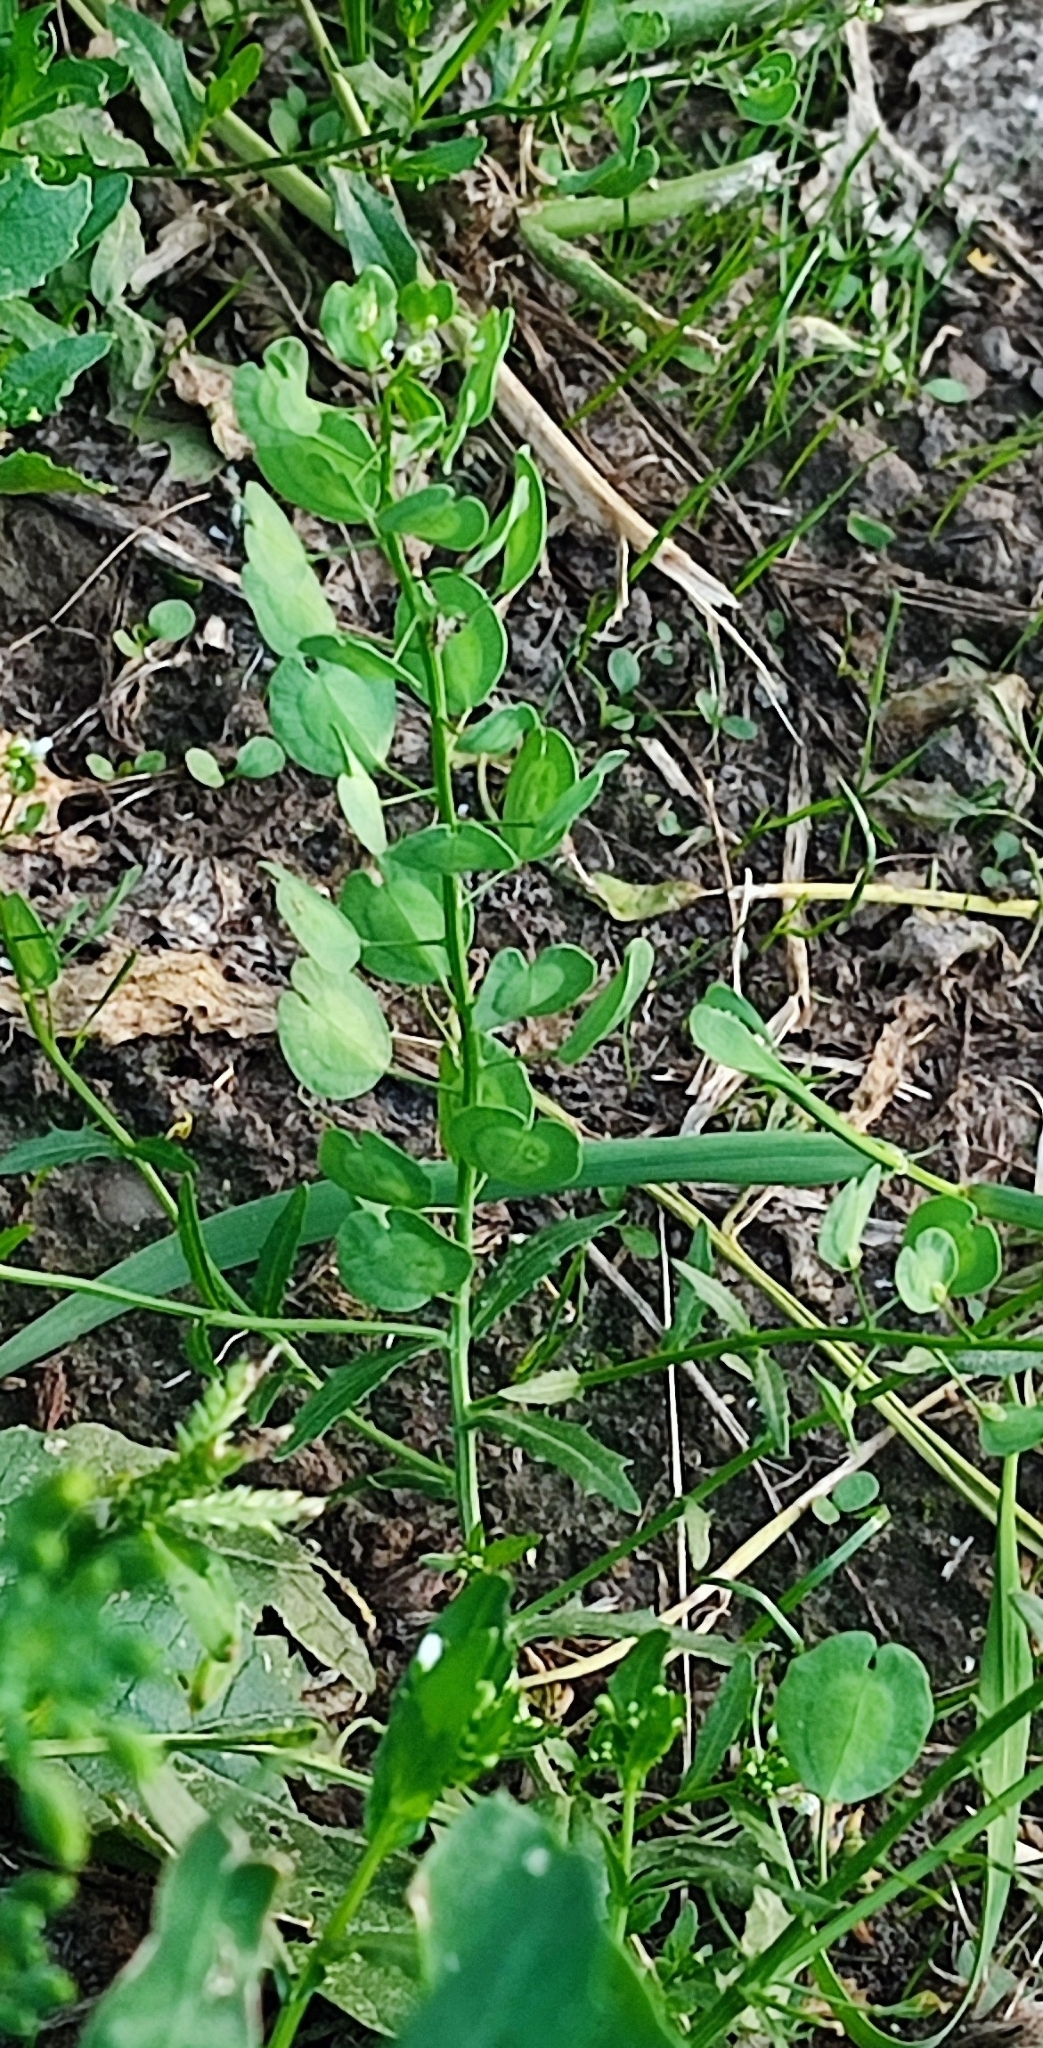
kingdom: Plantae
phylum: Tracheophyta
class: Magnoliopsida
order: Brassicales
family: Brassicaceae
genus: Thlaspi
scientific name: Thlaspi arvense
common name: Field pennycress
